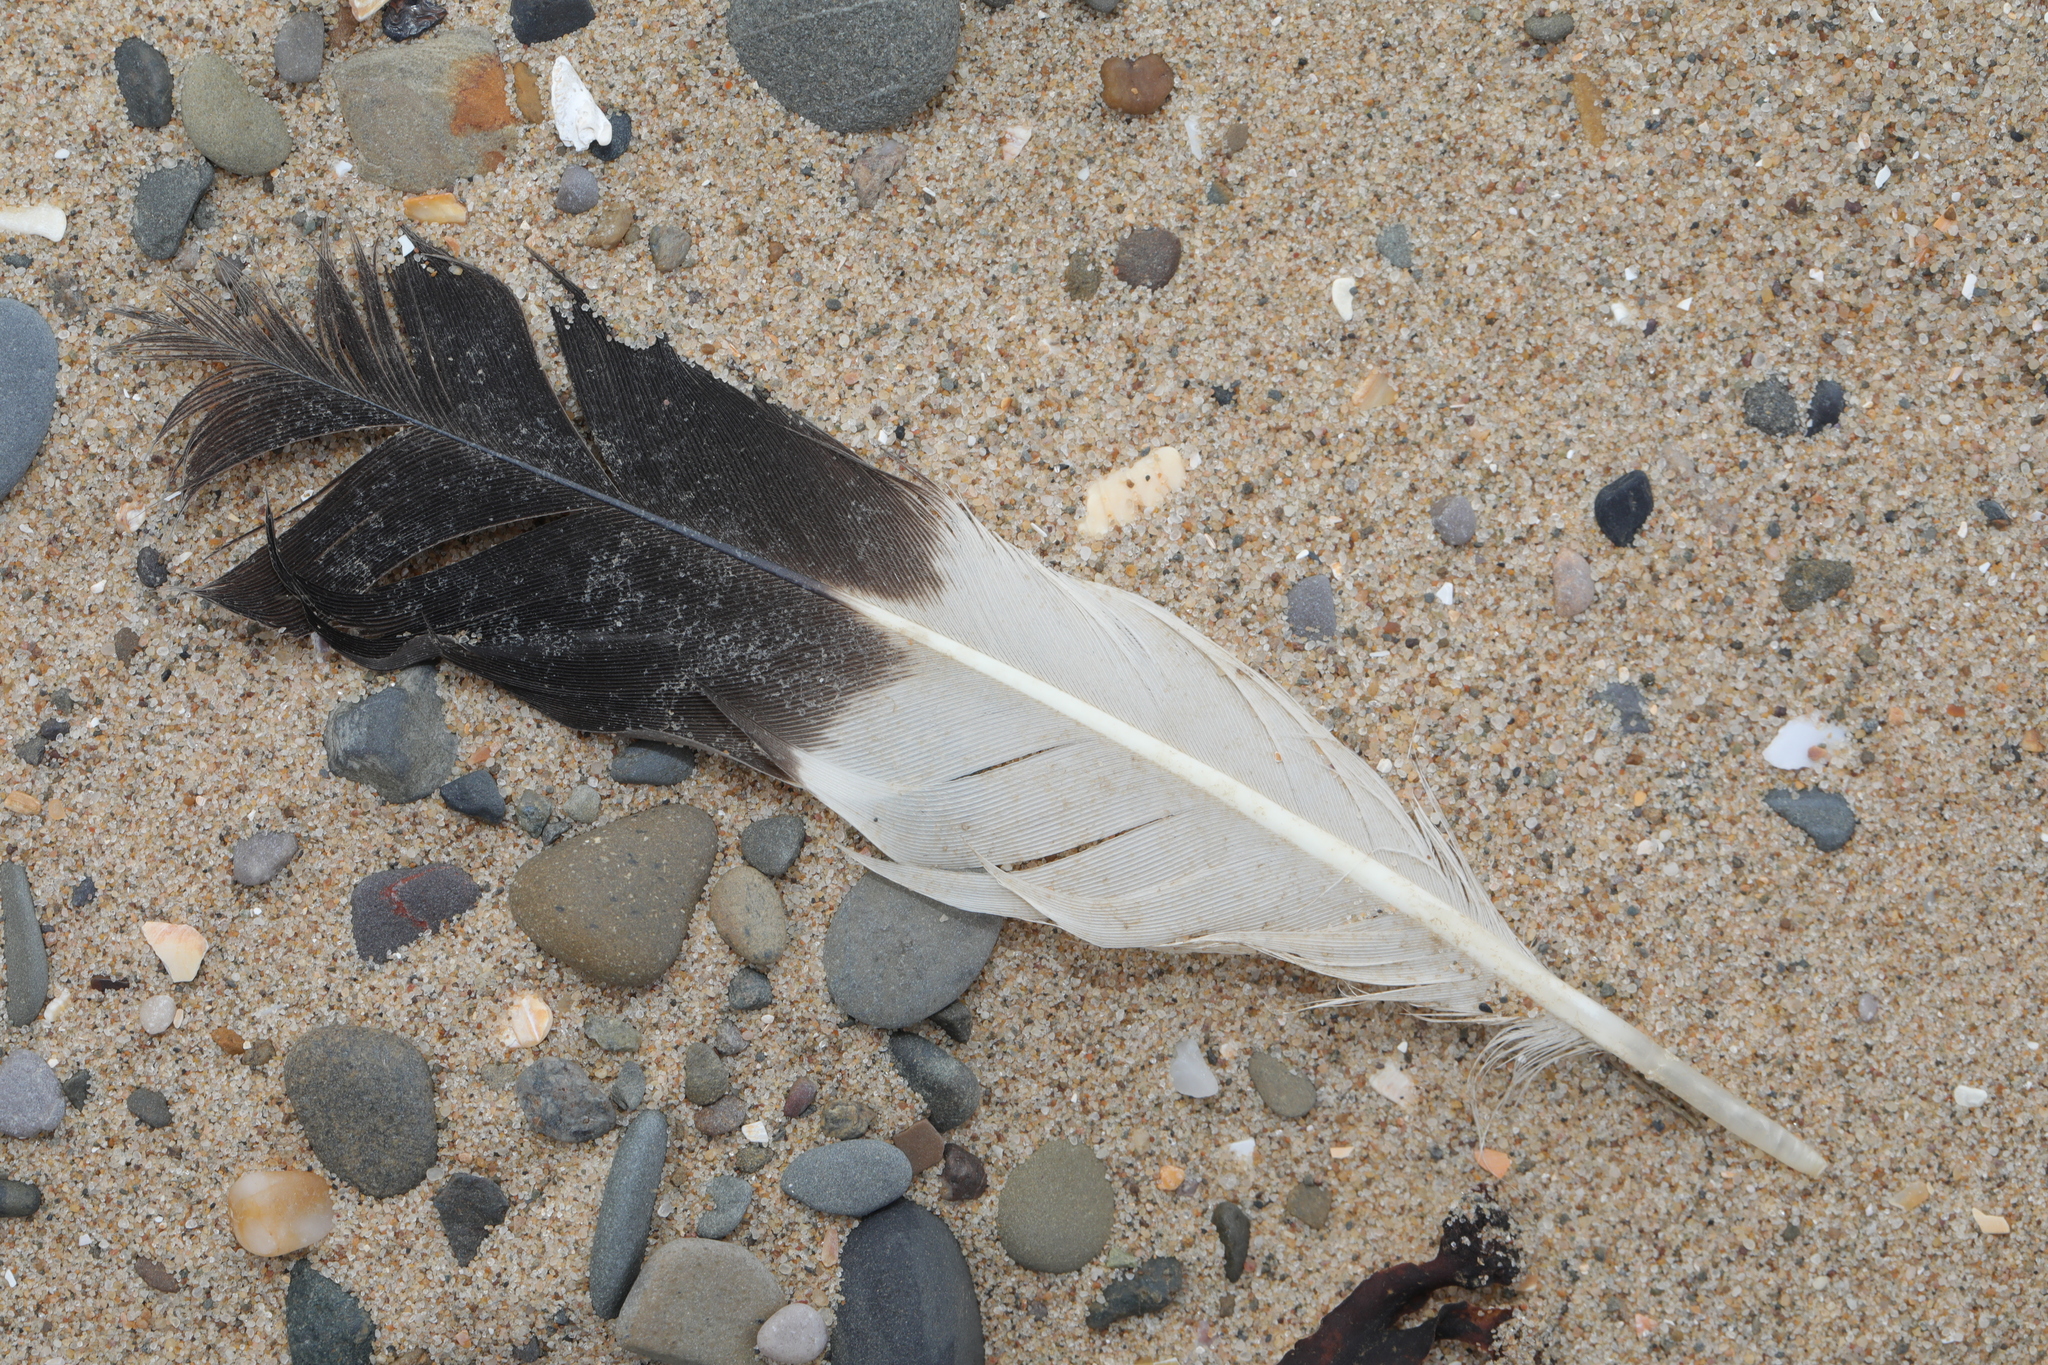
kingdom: Animalia
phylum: Chordata
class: Aves
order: Charadriiformes
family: Haematopodidae
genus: Haematopus
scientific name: Haematopus ostralegus
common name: Eurasian oystercatcher
